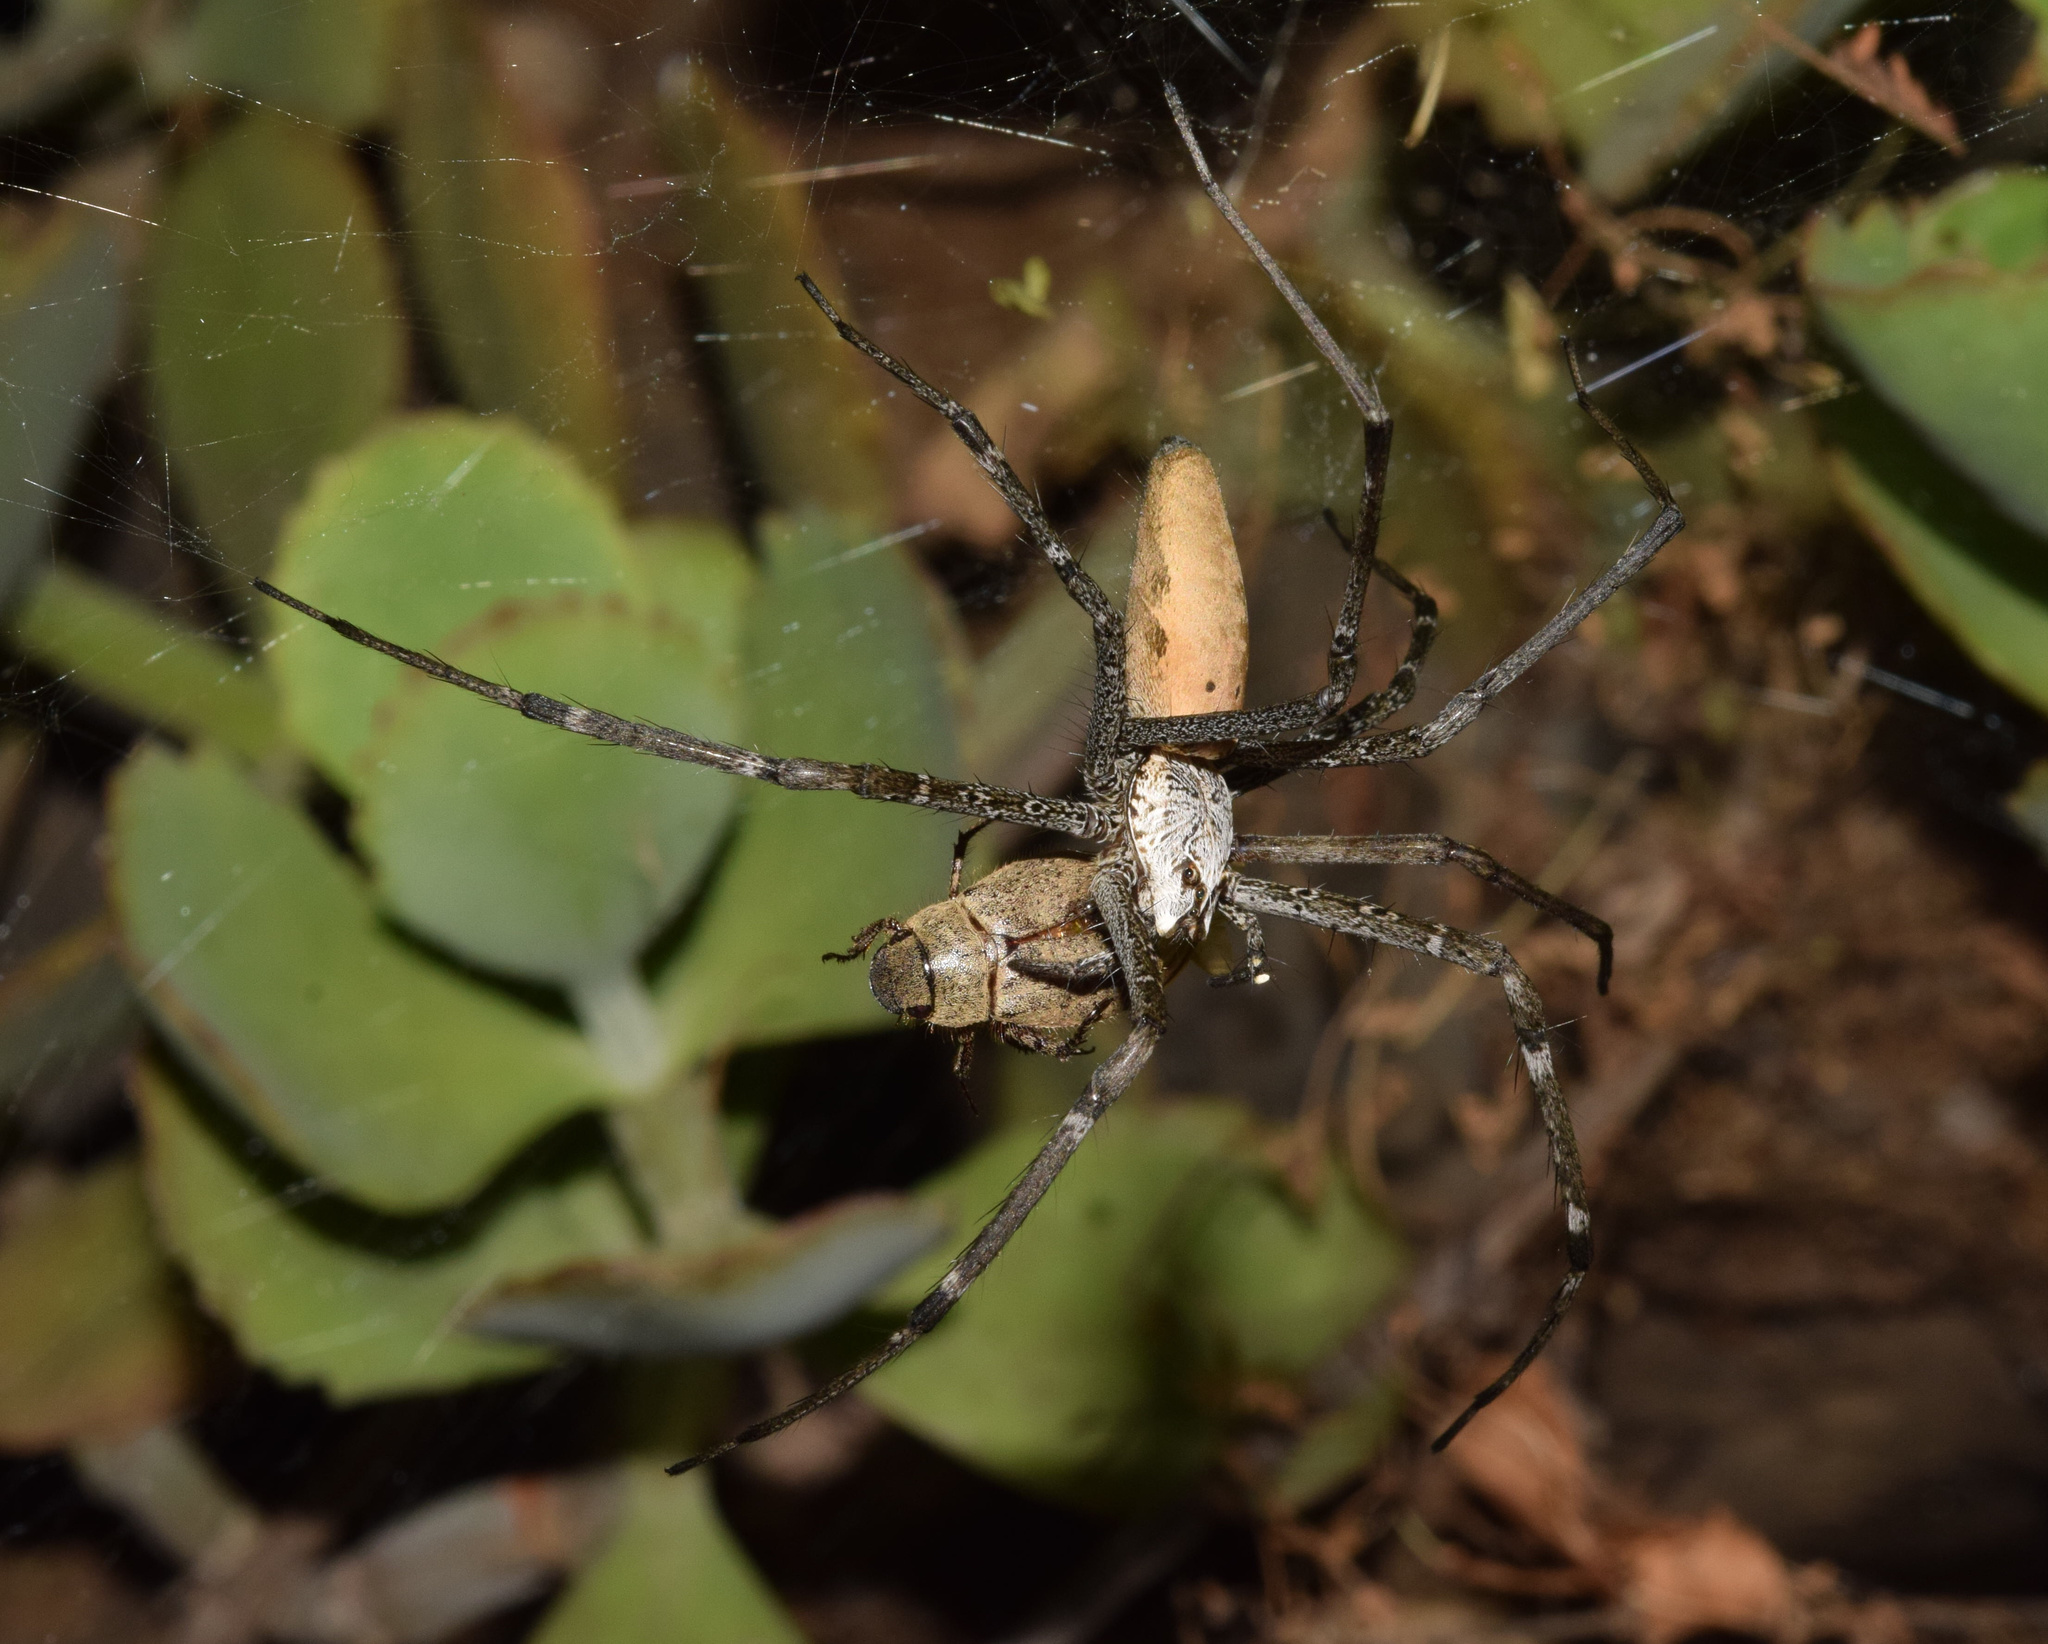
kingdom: Animalia
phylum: Arthropoda
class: Arachnida
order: Araneae
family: Pisauridae
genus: Euprosthenops
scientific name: Euprosthenops australis
